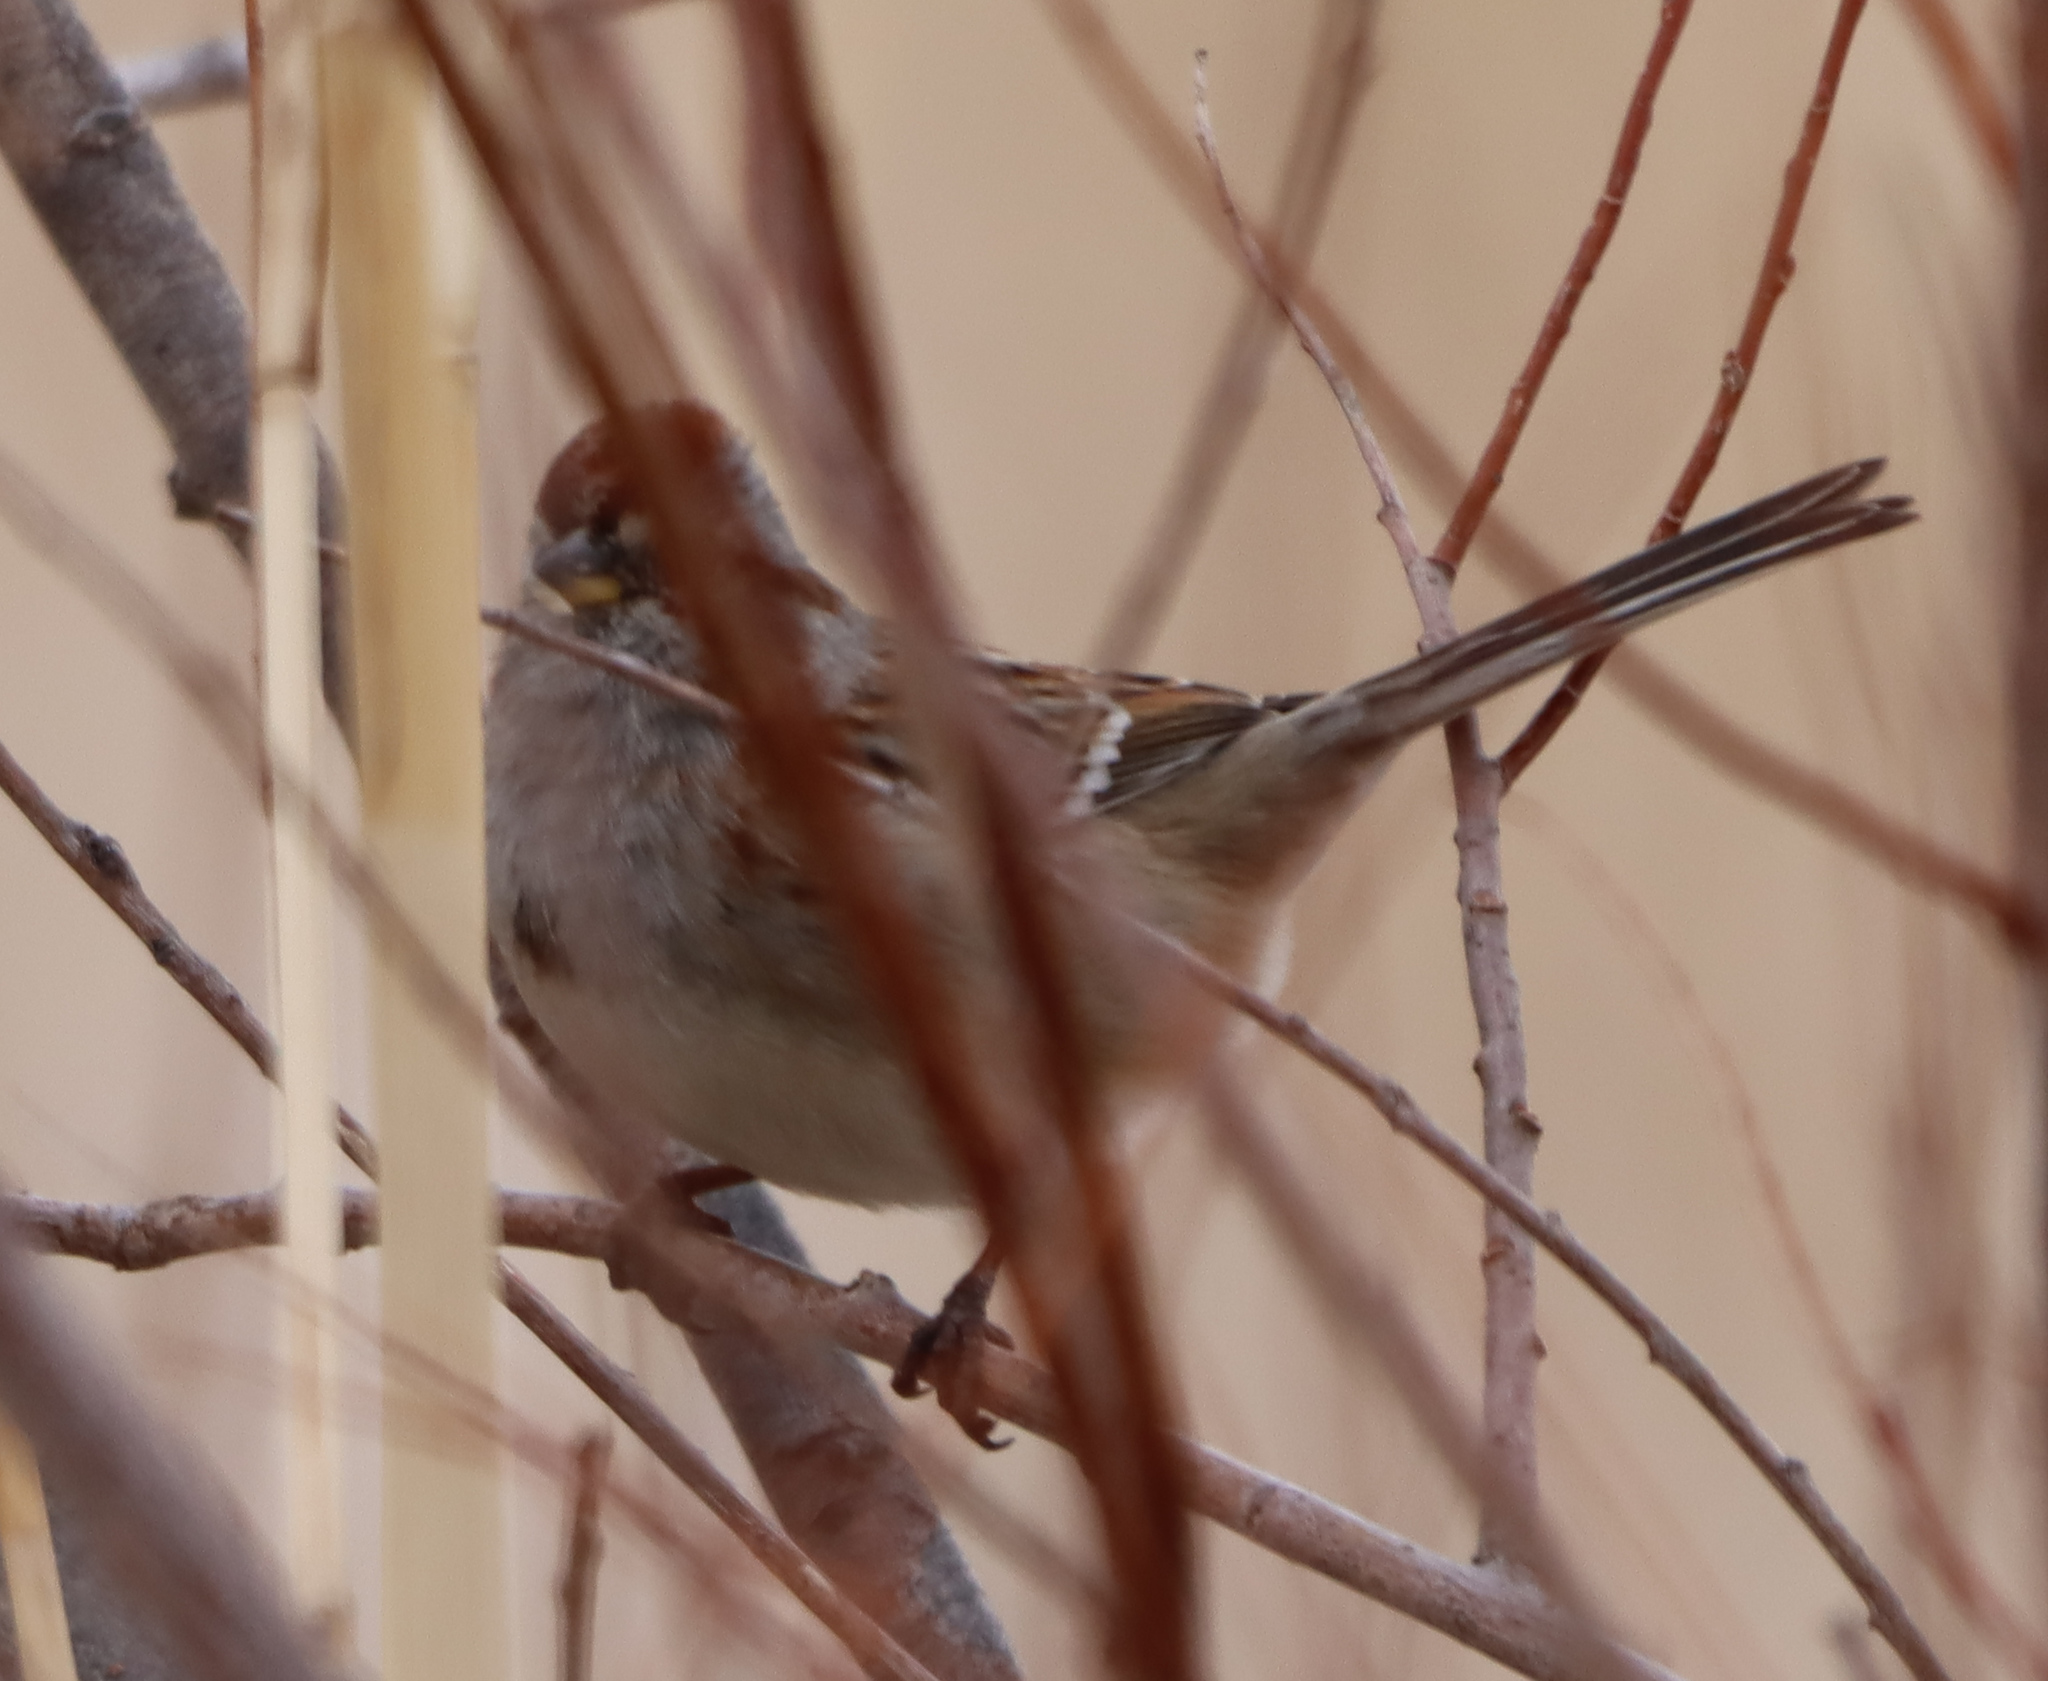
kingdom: Animalia
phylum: Chordata
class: Aves
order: Passeriformes
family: Passerellidae
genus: Spizelloides
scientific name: Spizelloides arborea
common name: American tree sparrow
